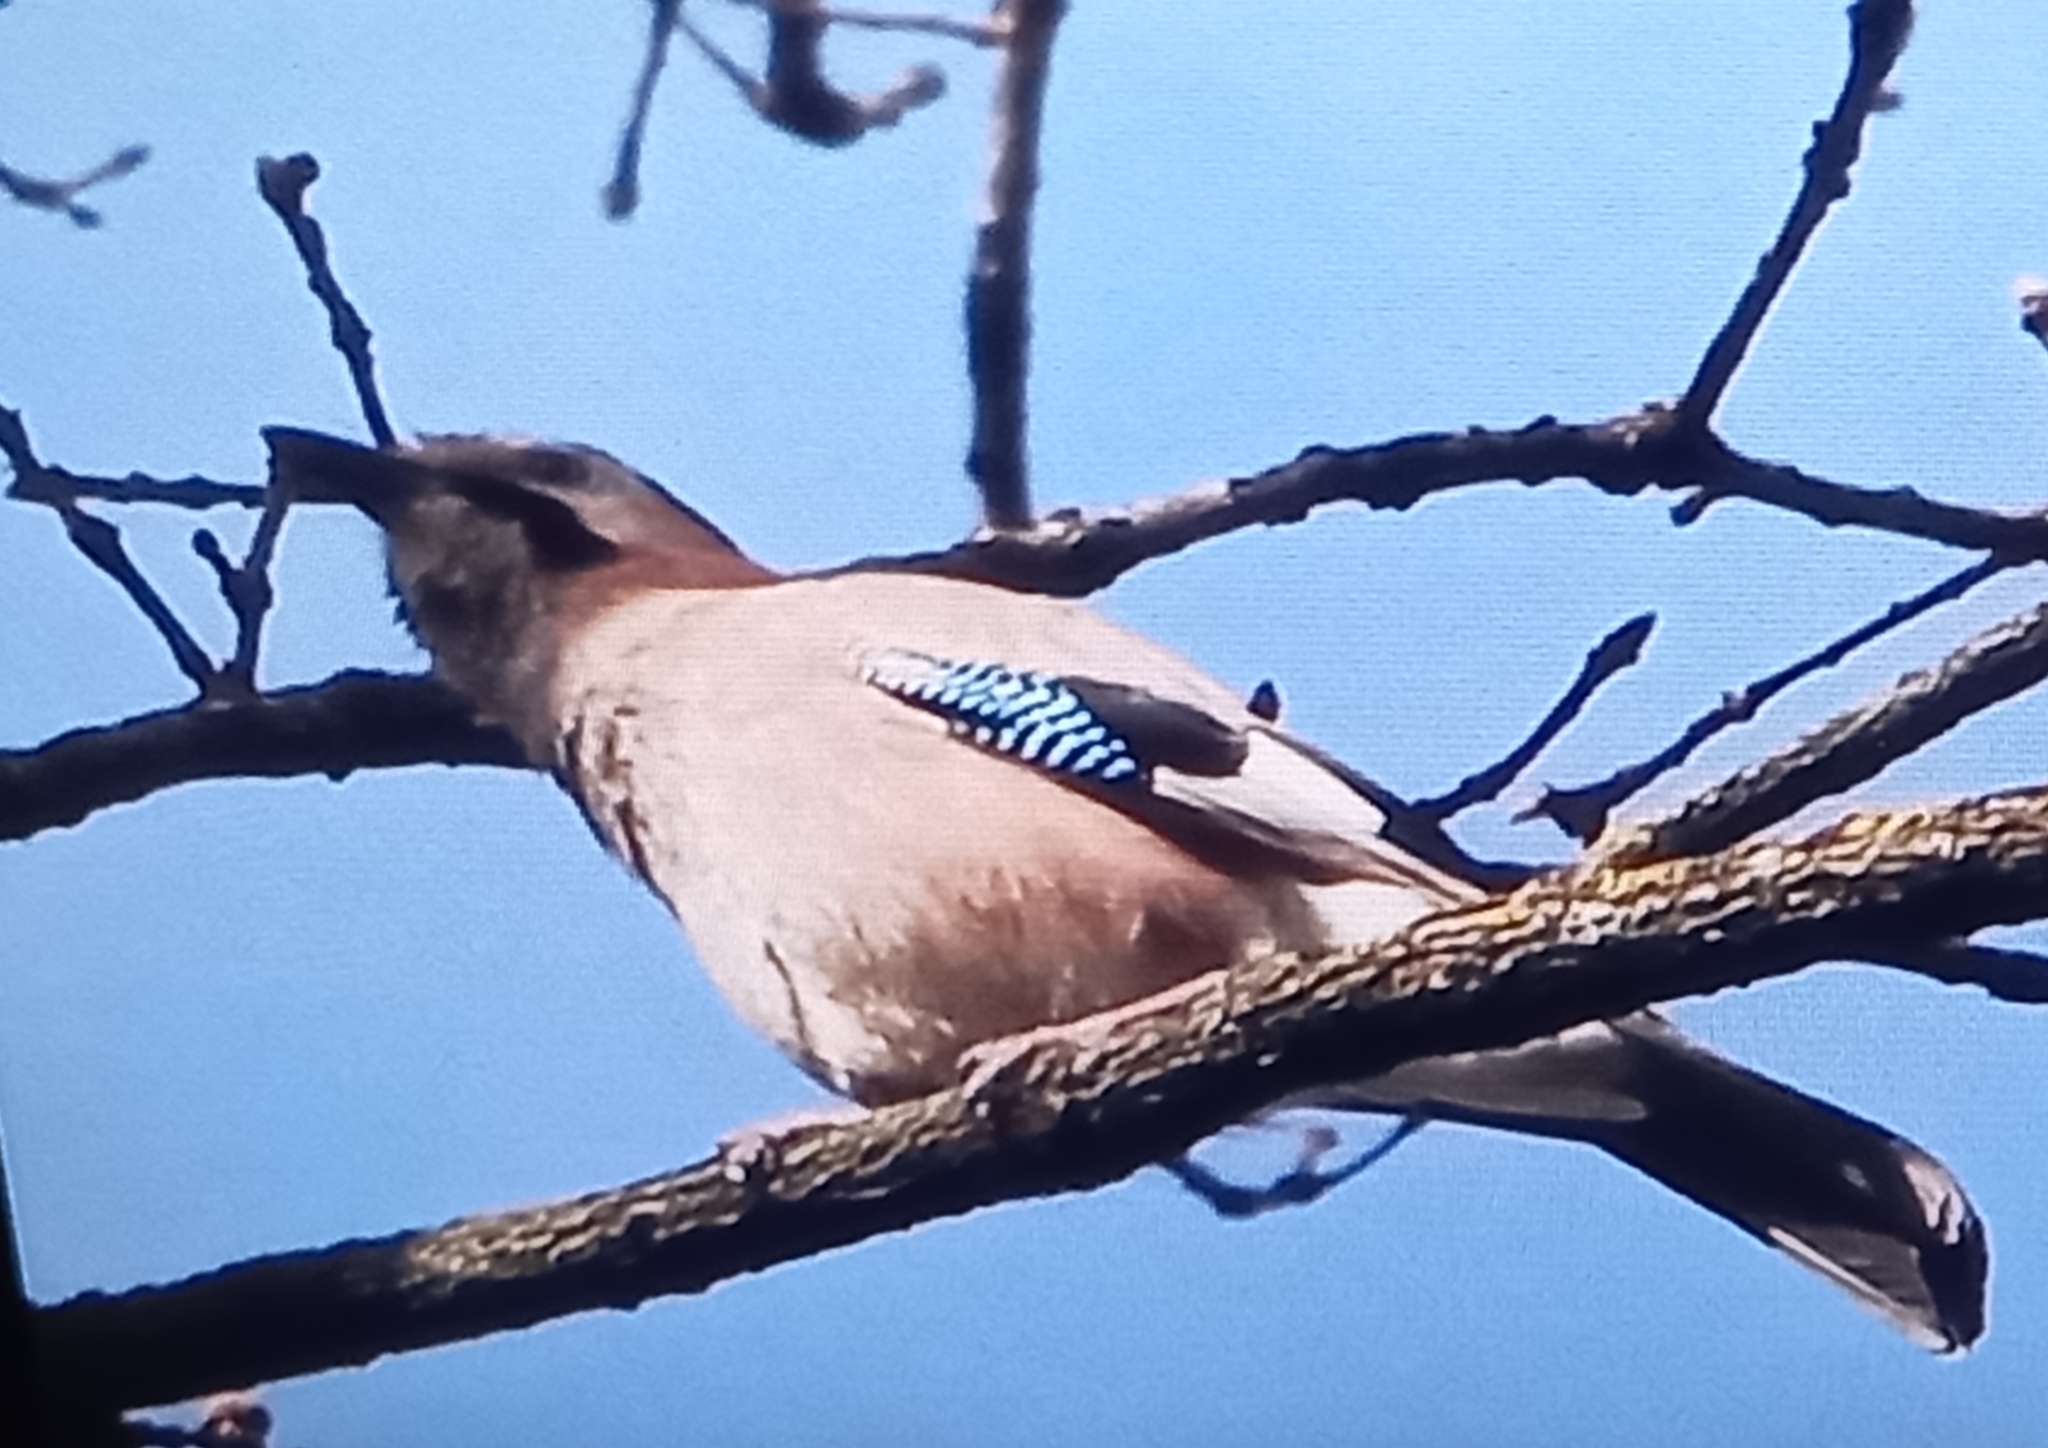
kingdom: Animalia
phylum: Chordata
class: Aves
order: Passeriformes
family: Corvidae
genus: Garrulus
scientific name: Garrulus glandarius
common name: Eurasian jay
